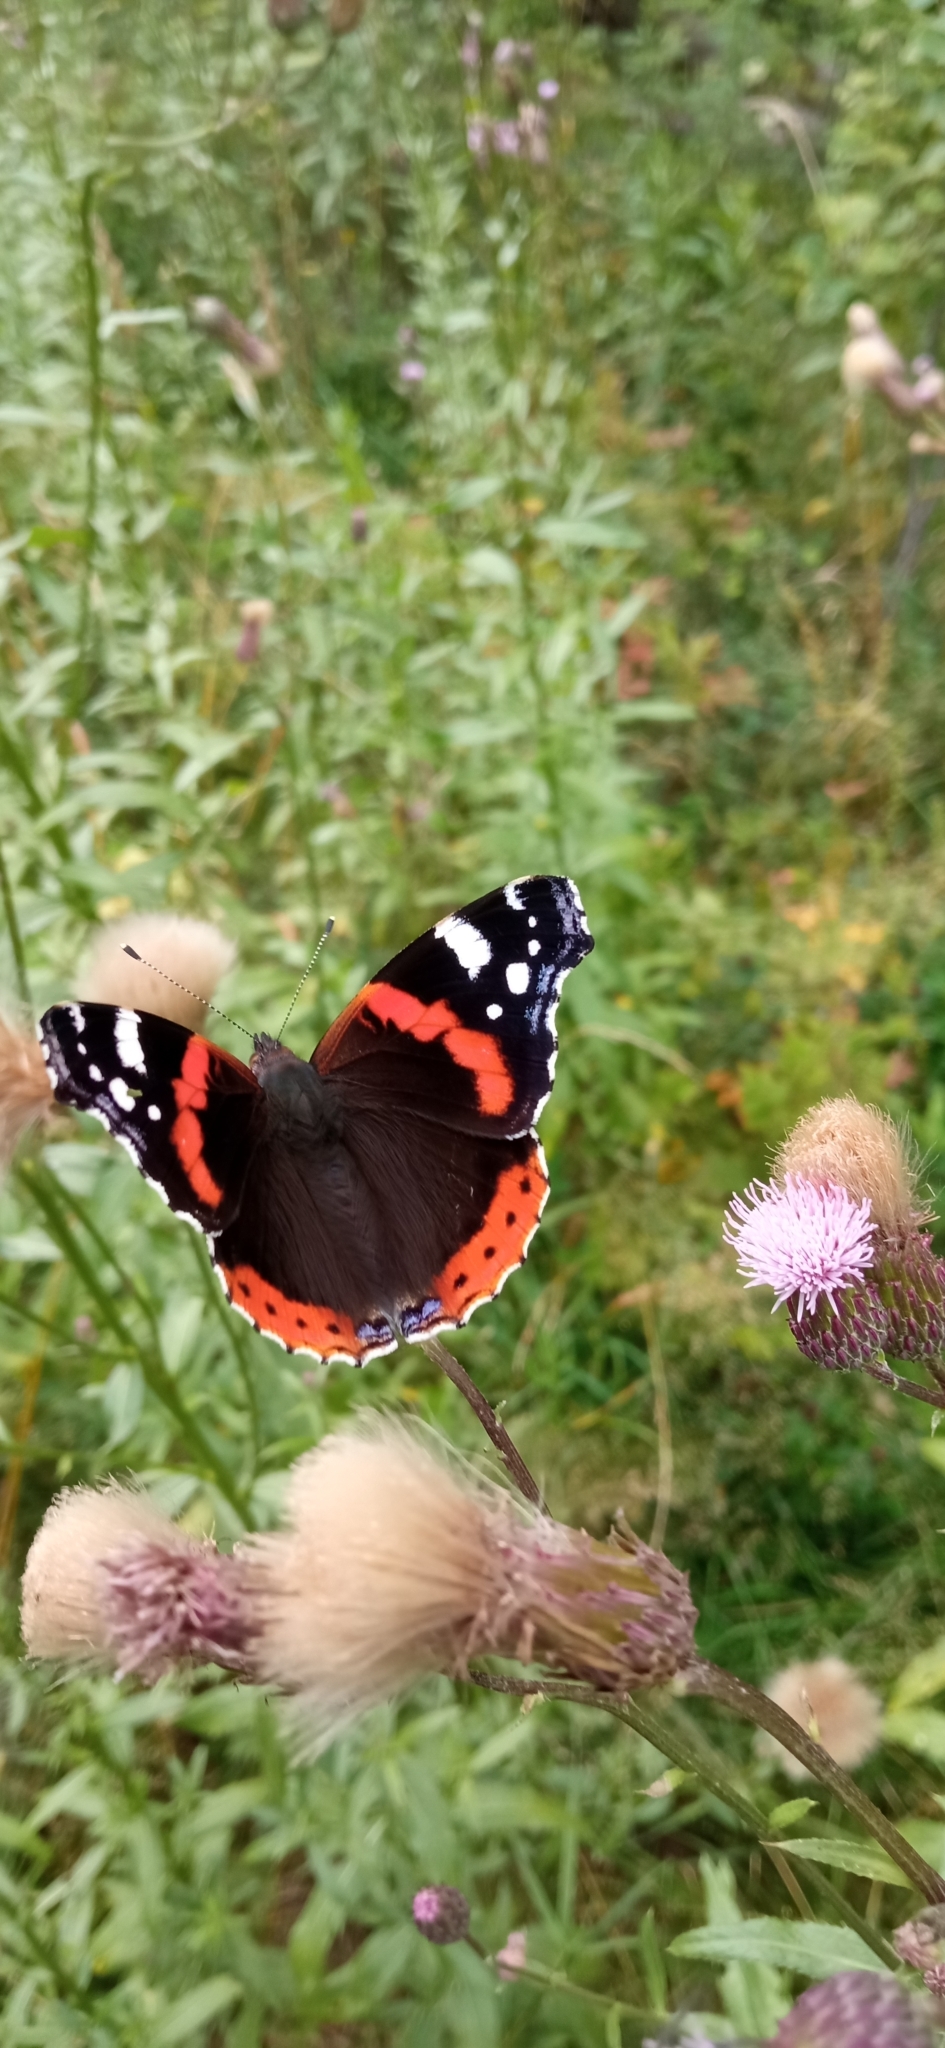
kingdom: Animalia
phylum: Arthropoda
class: Insecta
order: Lepidoptera
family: Nymphalidae
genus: Vanessa
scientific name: Vanessa atalanta
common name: Red admiral
